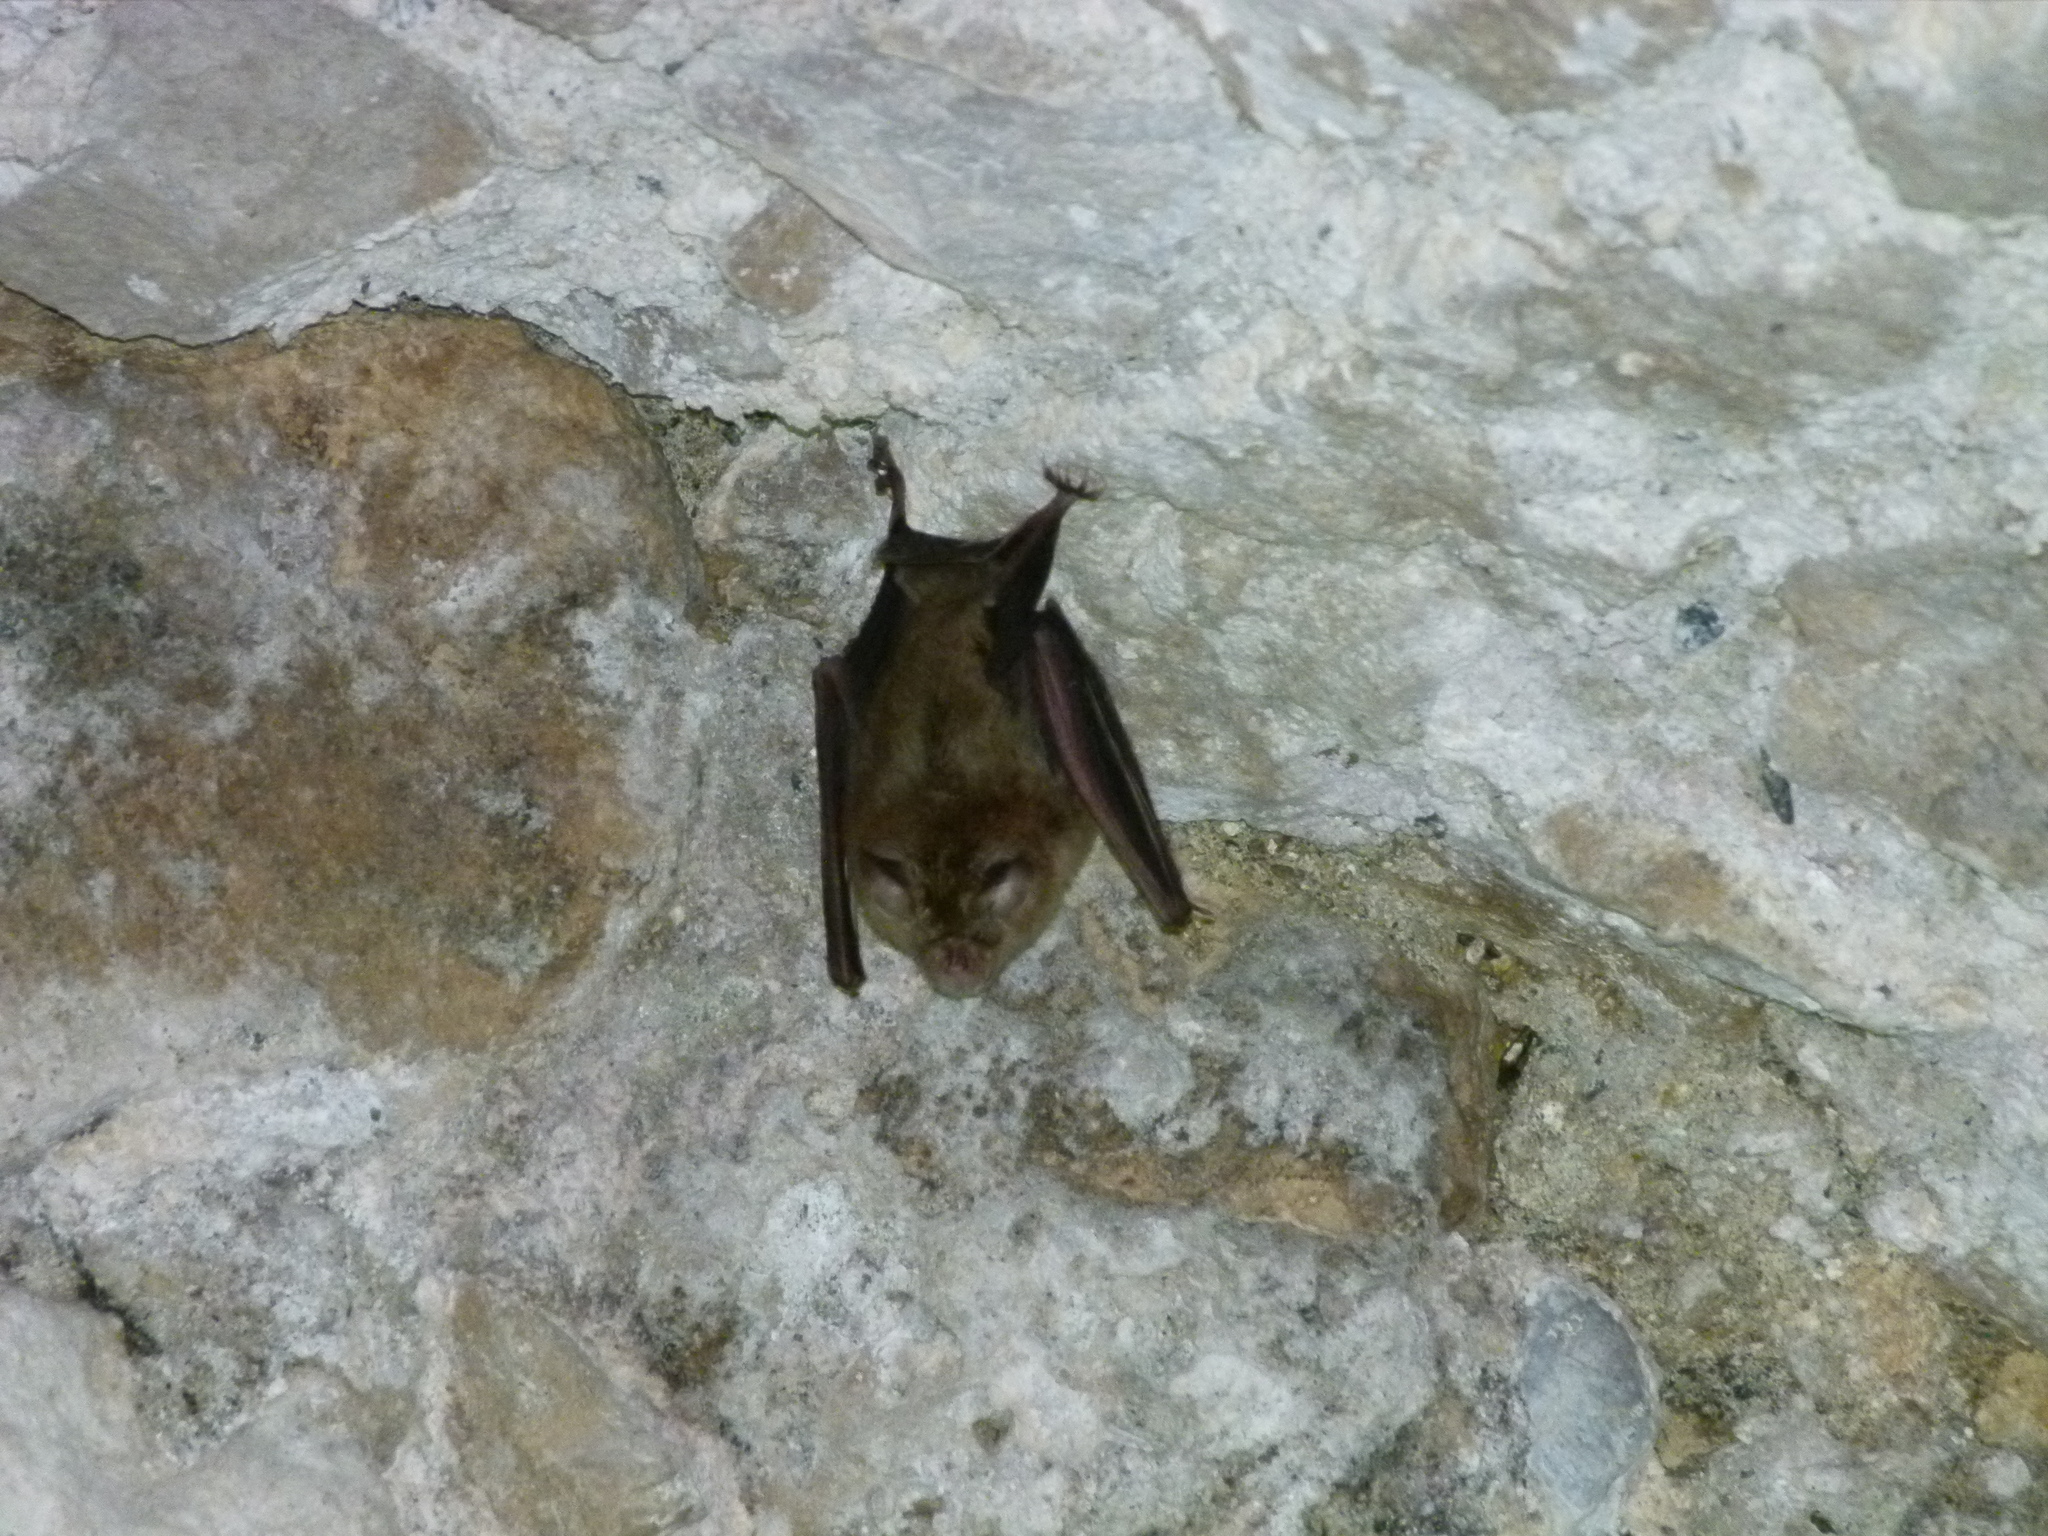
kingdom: Animalia
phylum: Chordata
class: Mammalia
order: Chiroptera
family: Rhinolophidae
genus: Rhinolophus
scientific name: Rhinolophus ferrumequinum
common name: Greater horseshoe bat
